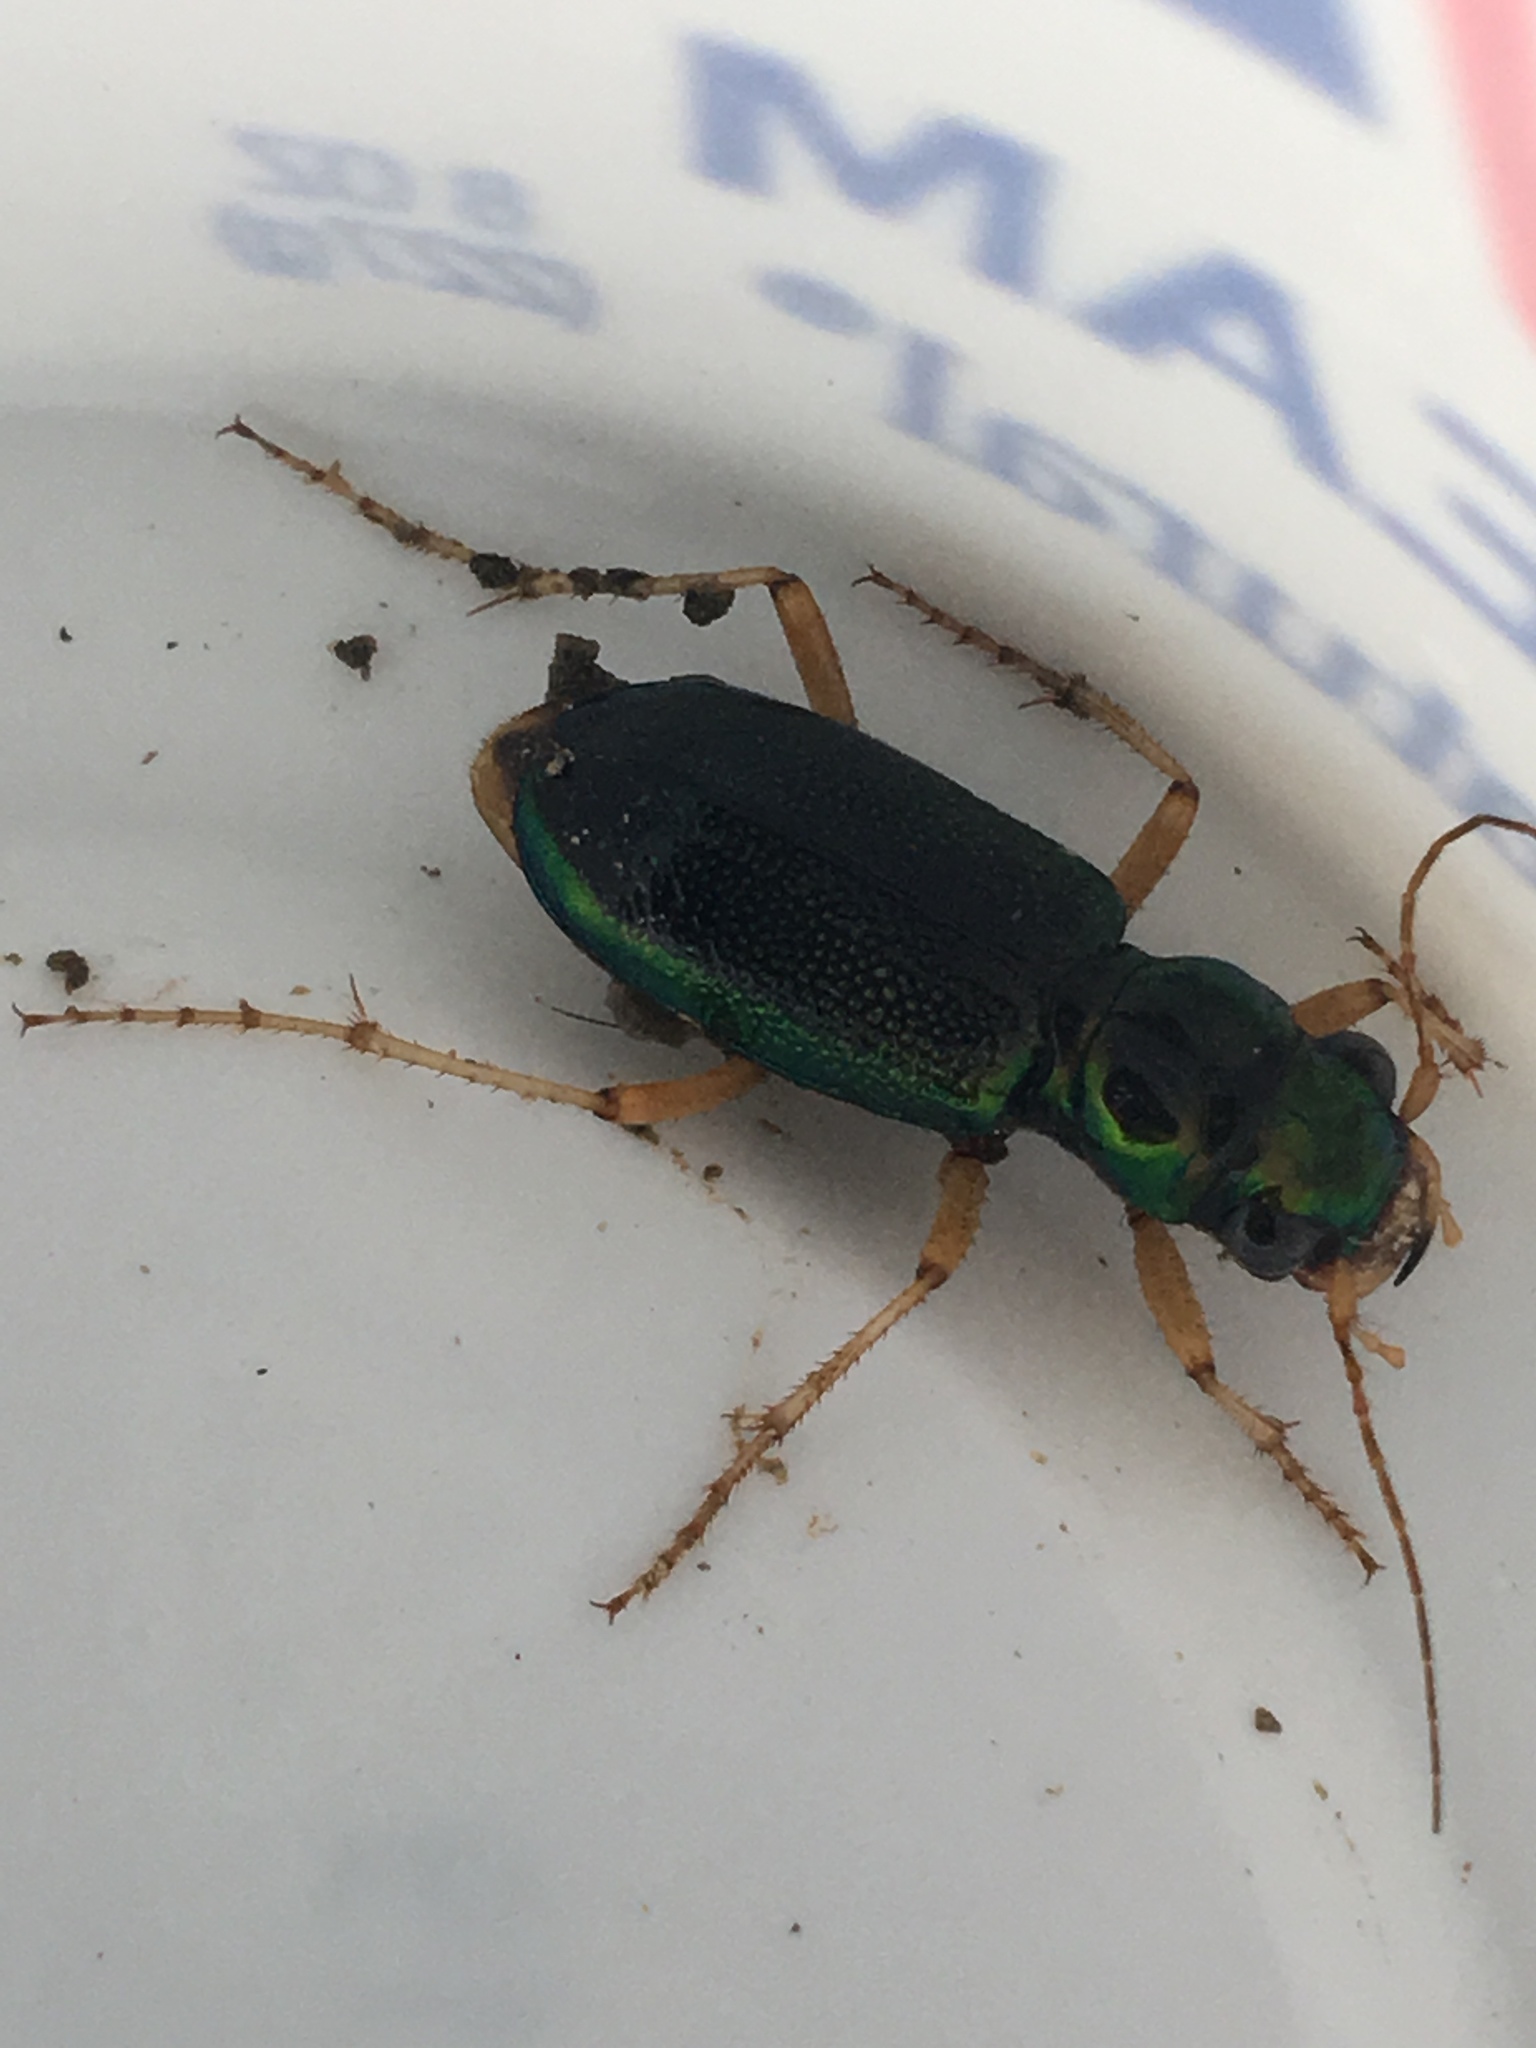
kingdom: Animalia
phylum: Arthropoda
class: Insecta
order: Coleoptera
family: Carabidae
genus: Tetracha
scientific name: Tetracha virginica
